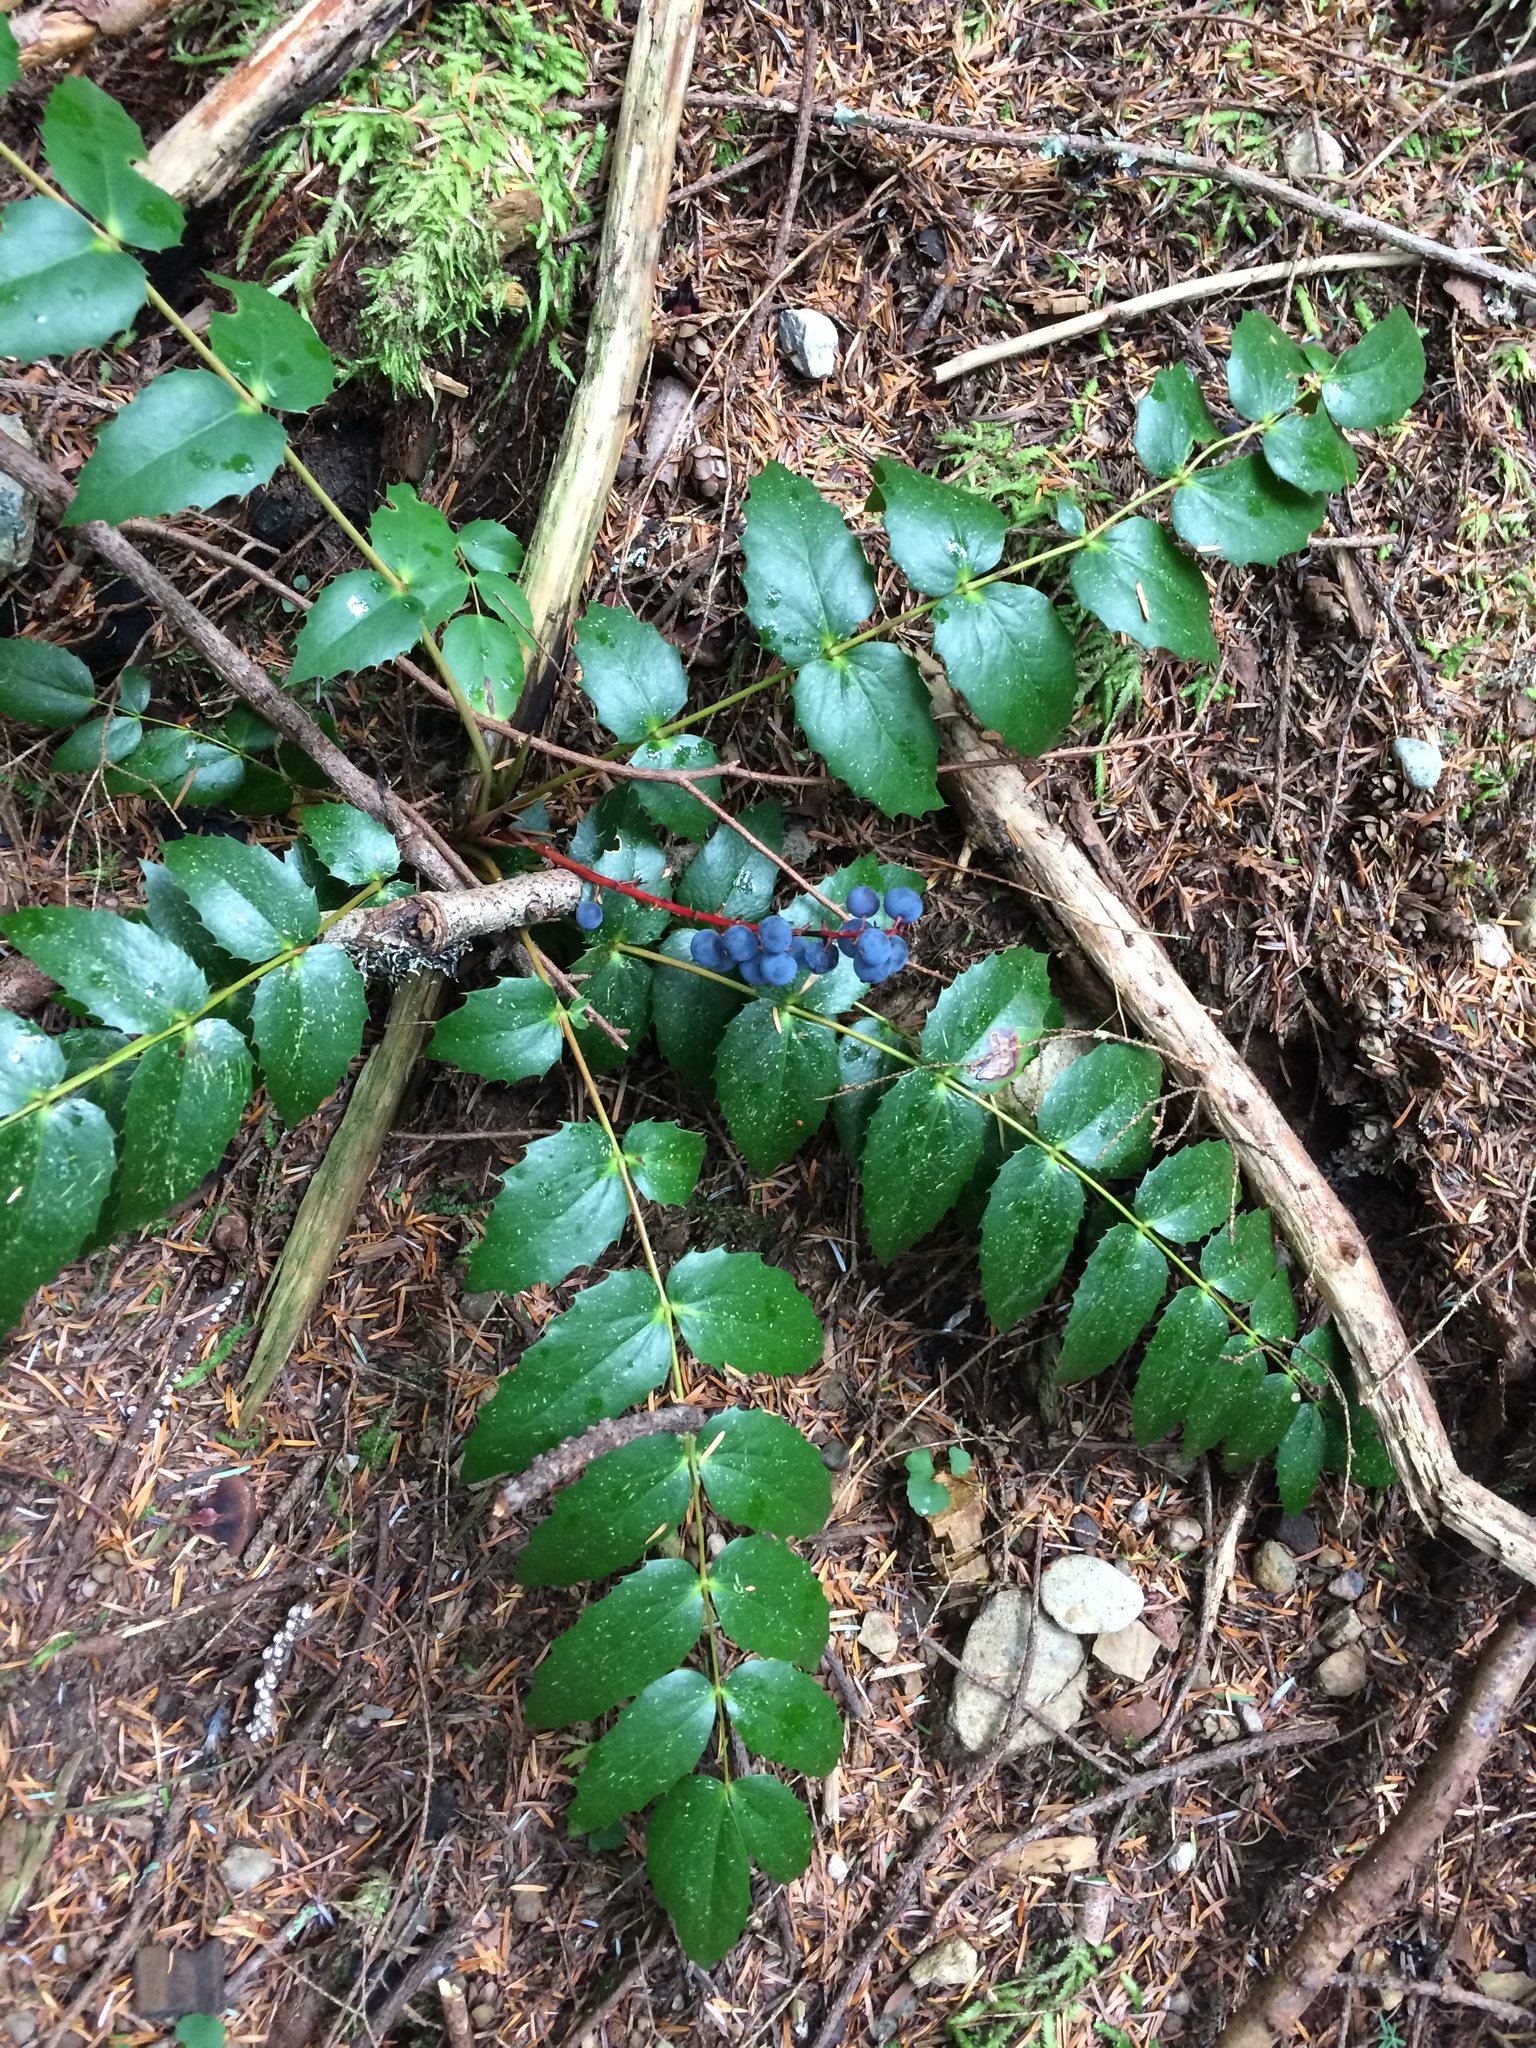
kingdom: Plantae
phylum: Tracheophyta
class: Magnoliopsida
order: Ranunculales
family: Berberidaceae
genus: Mahonia
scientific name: Mahonia nervosa
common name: Cascade oregon-grape
